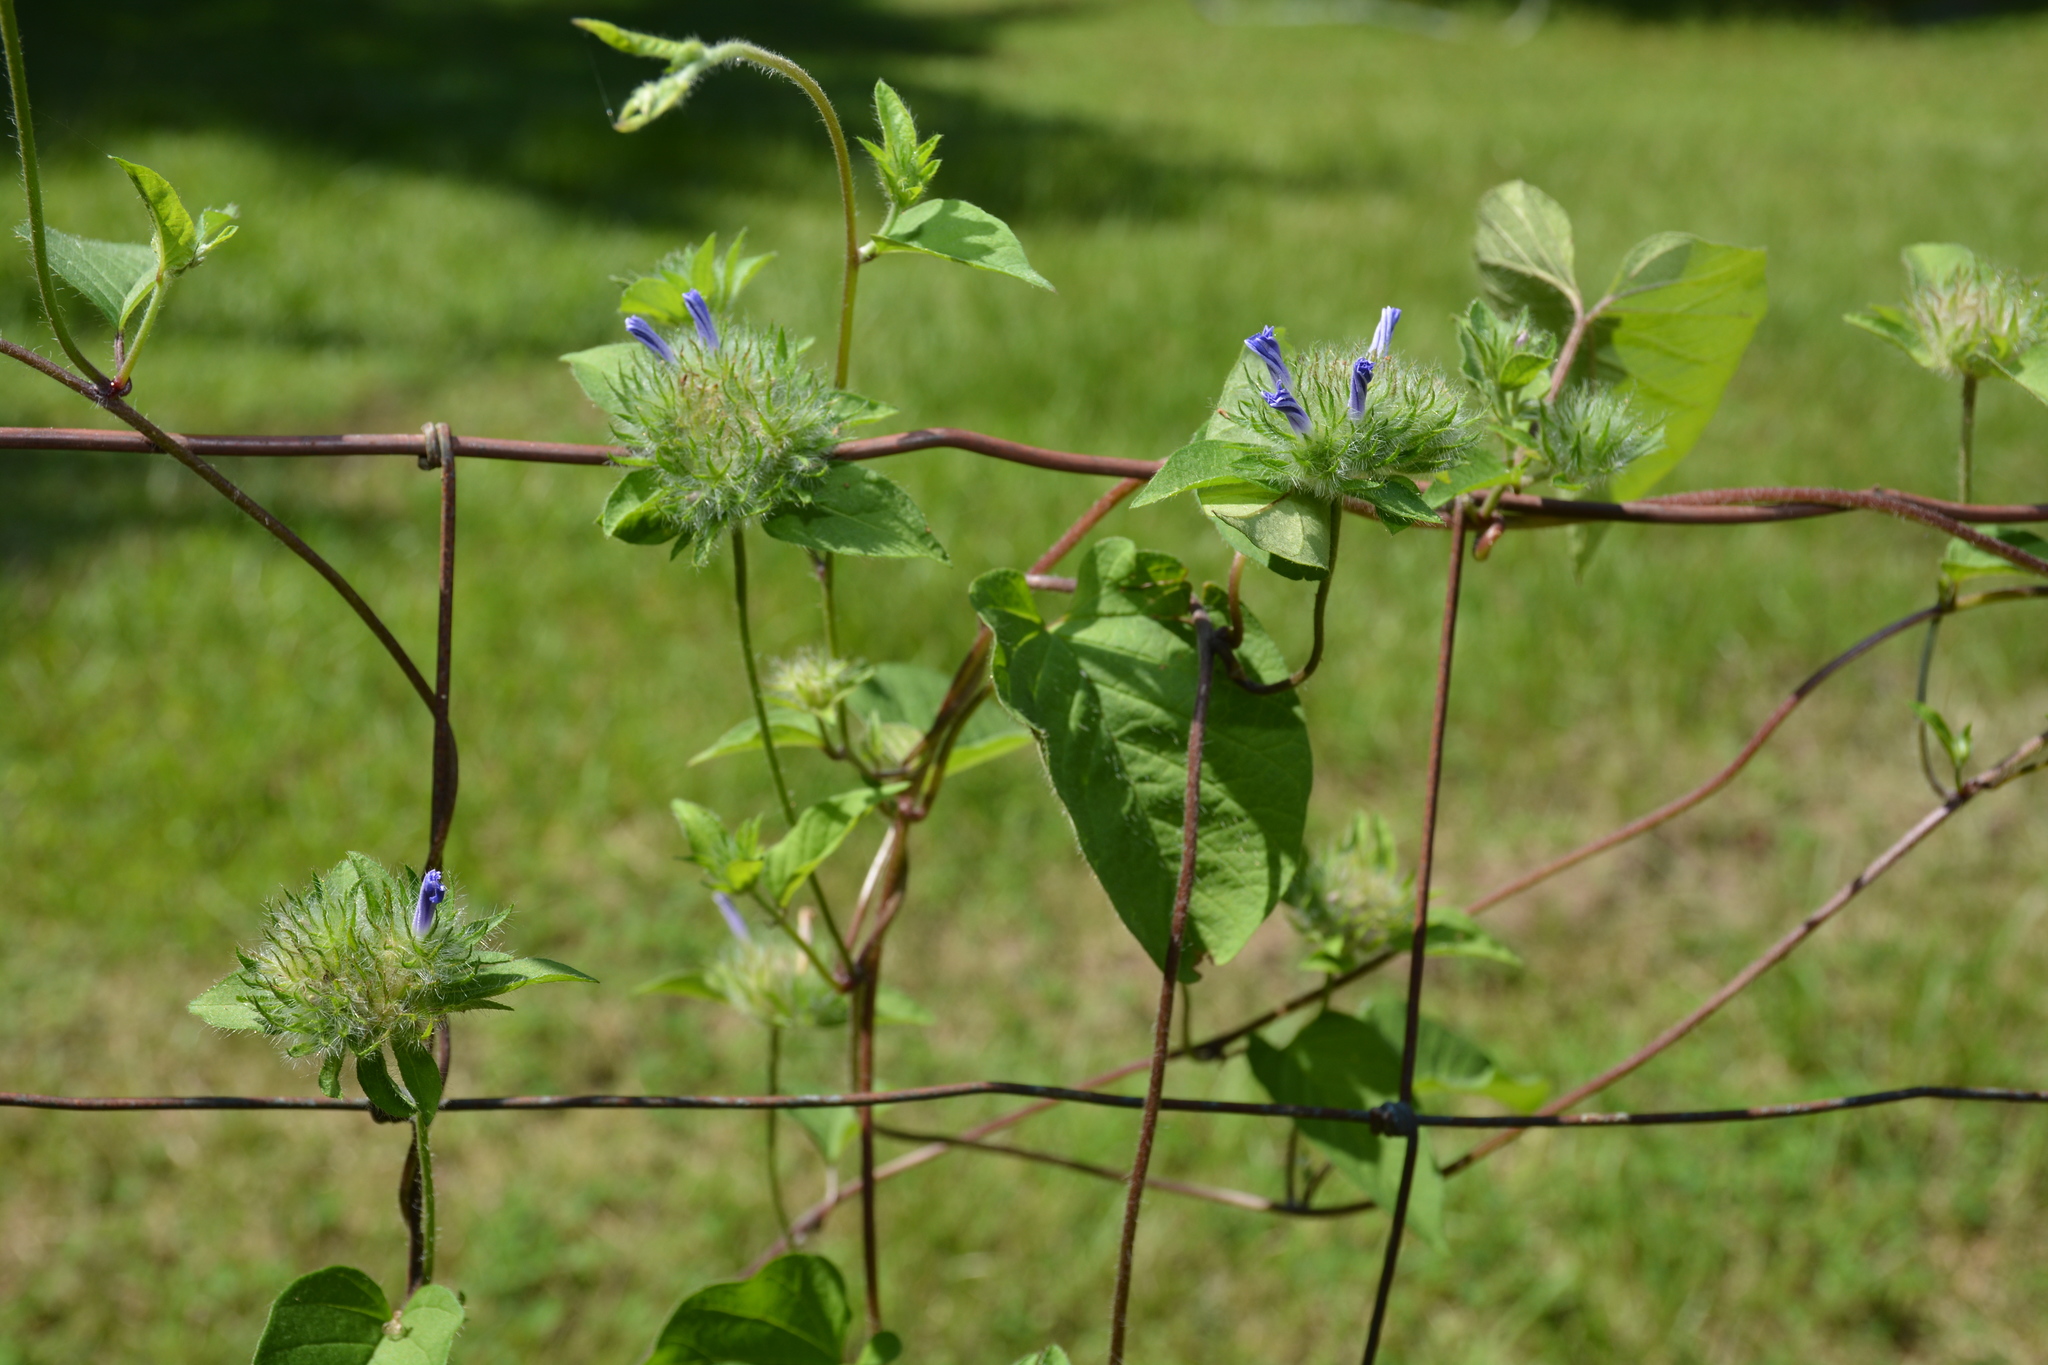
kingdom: Plantae
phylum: Tracheophyta
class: Magnoliopsida
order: Solanales
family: Convolvulaceae
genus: Jacquemontia
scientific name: Jacquemontia tamnifolia
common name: Hairy clustervine
